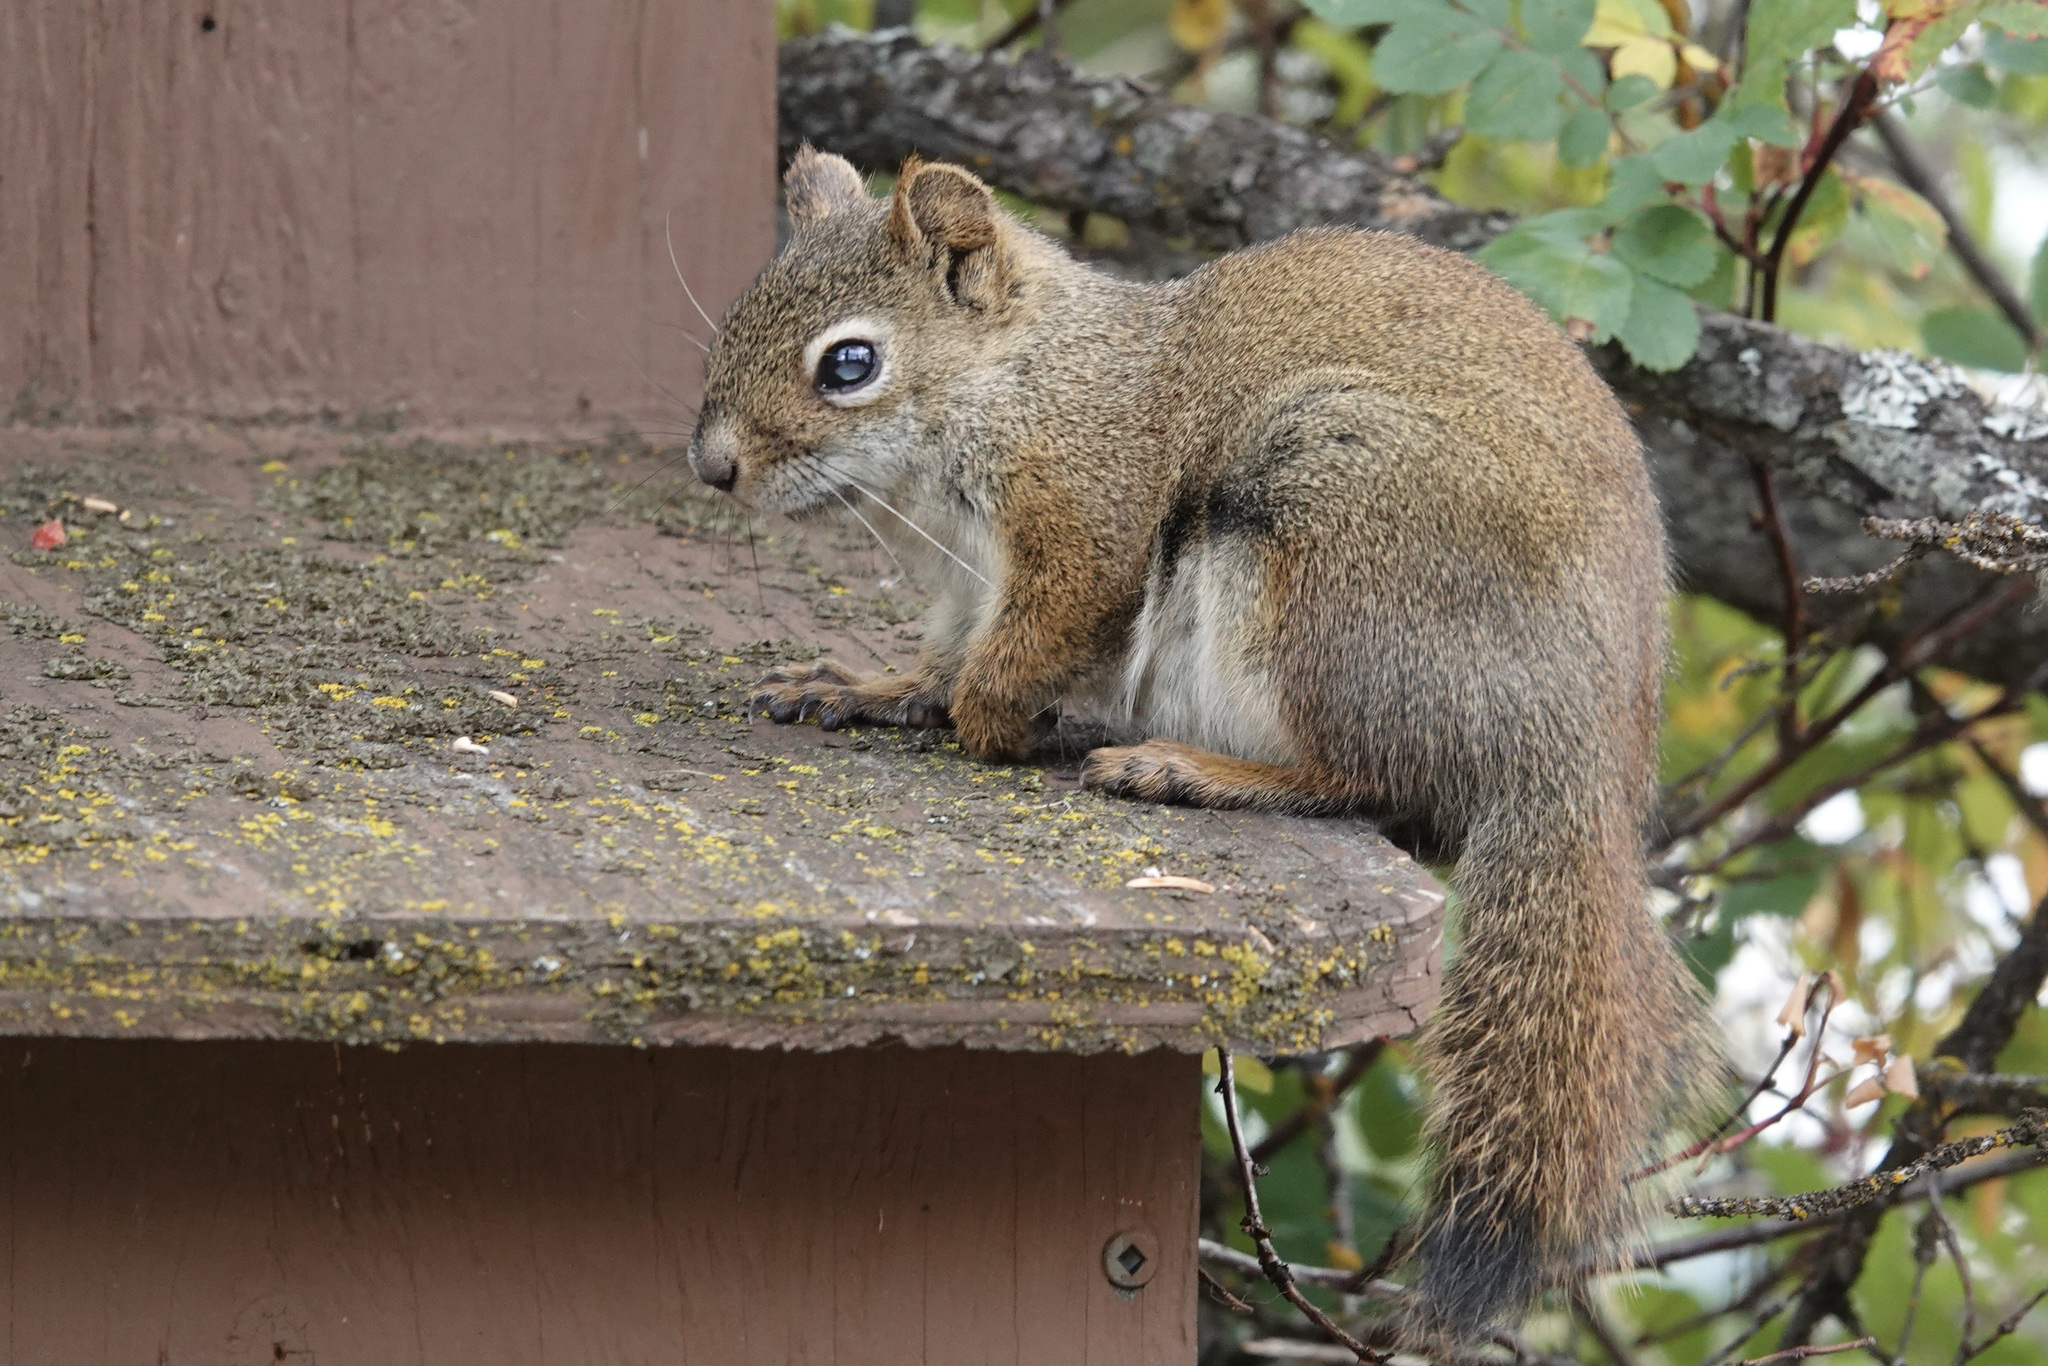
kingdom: Animalia
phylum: Chordata
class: Mammalia
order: Rodentia
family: Sciuridae
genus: Tamiasciurus
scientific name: Tamiasciurus hudsonicus
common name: Red squirrel
